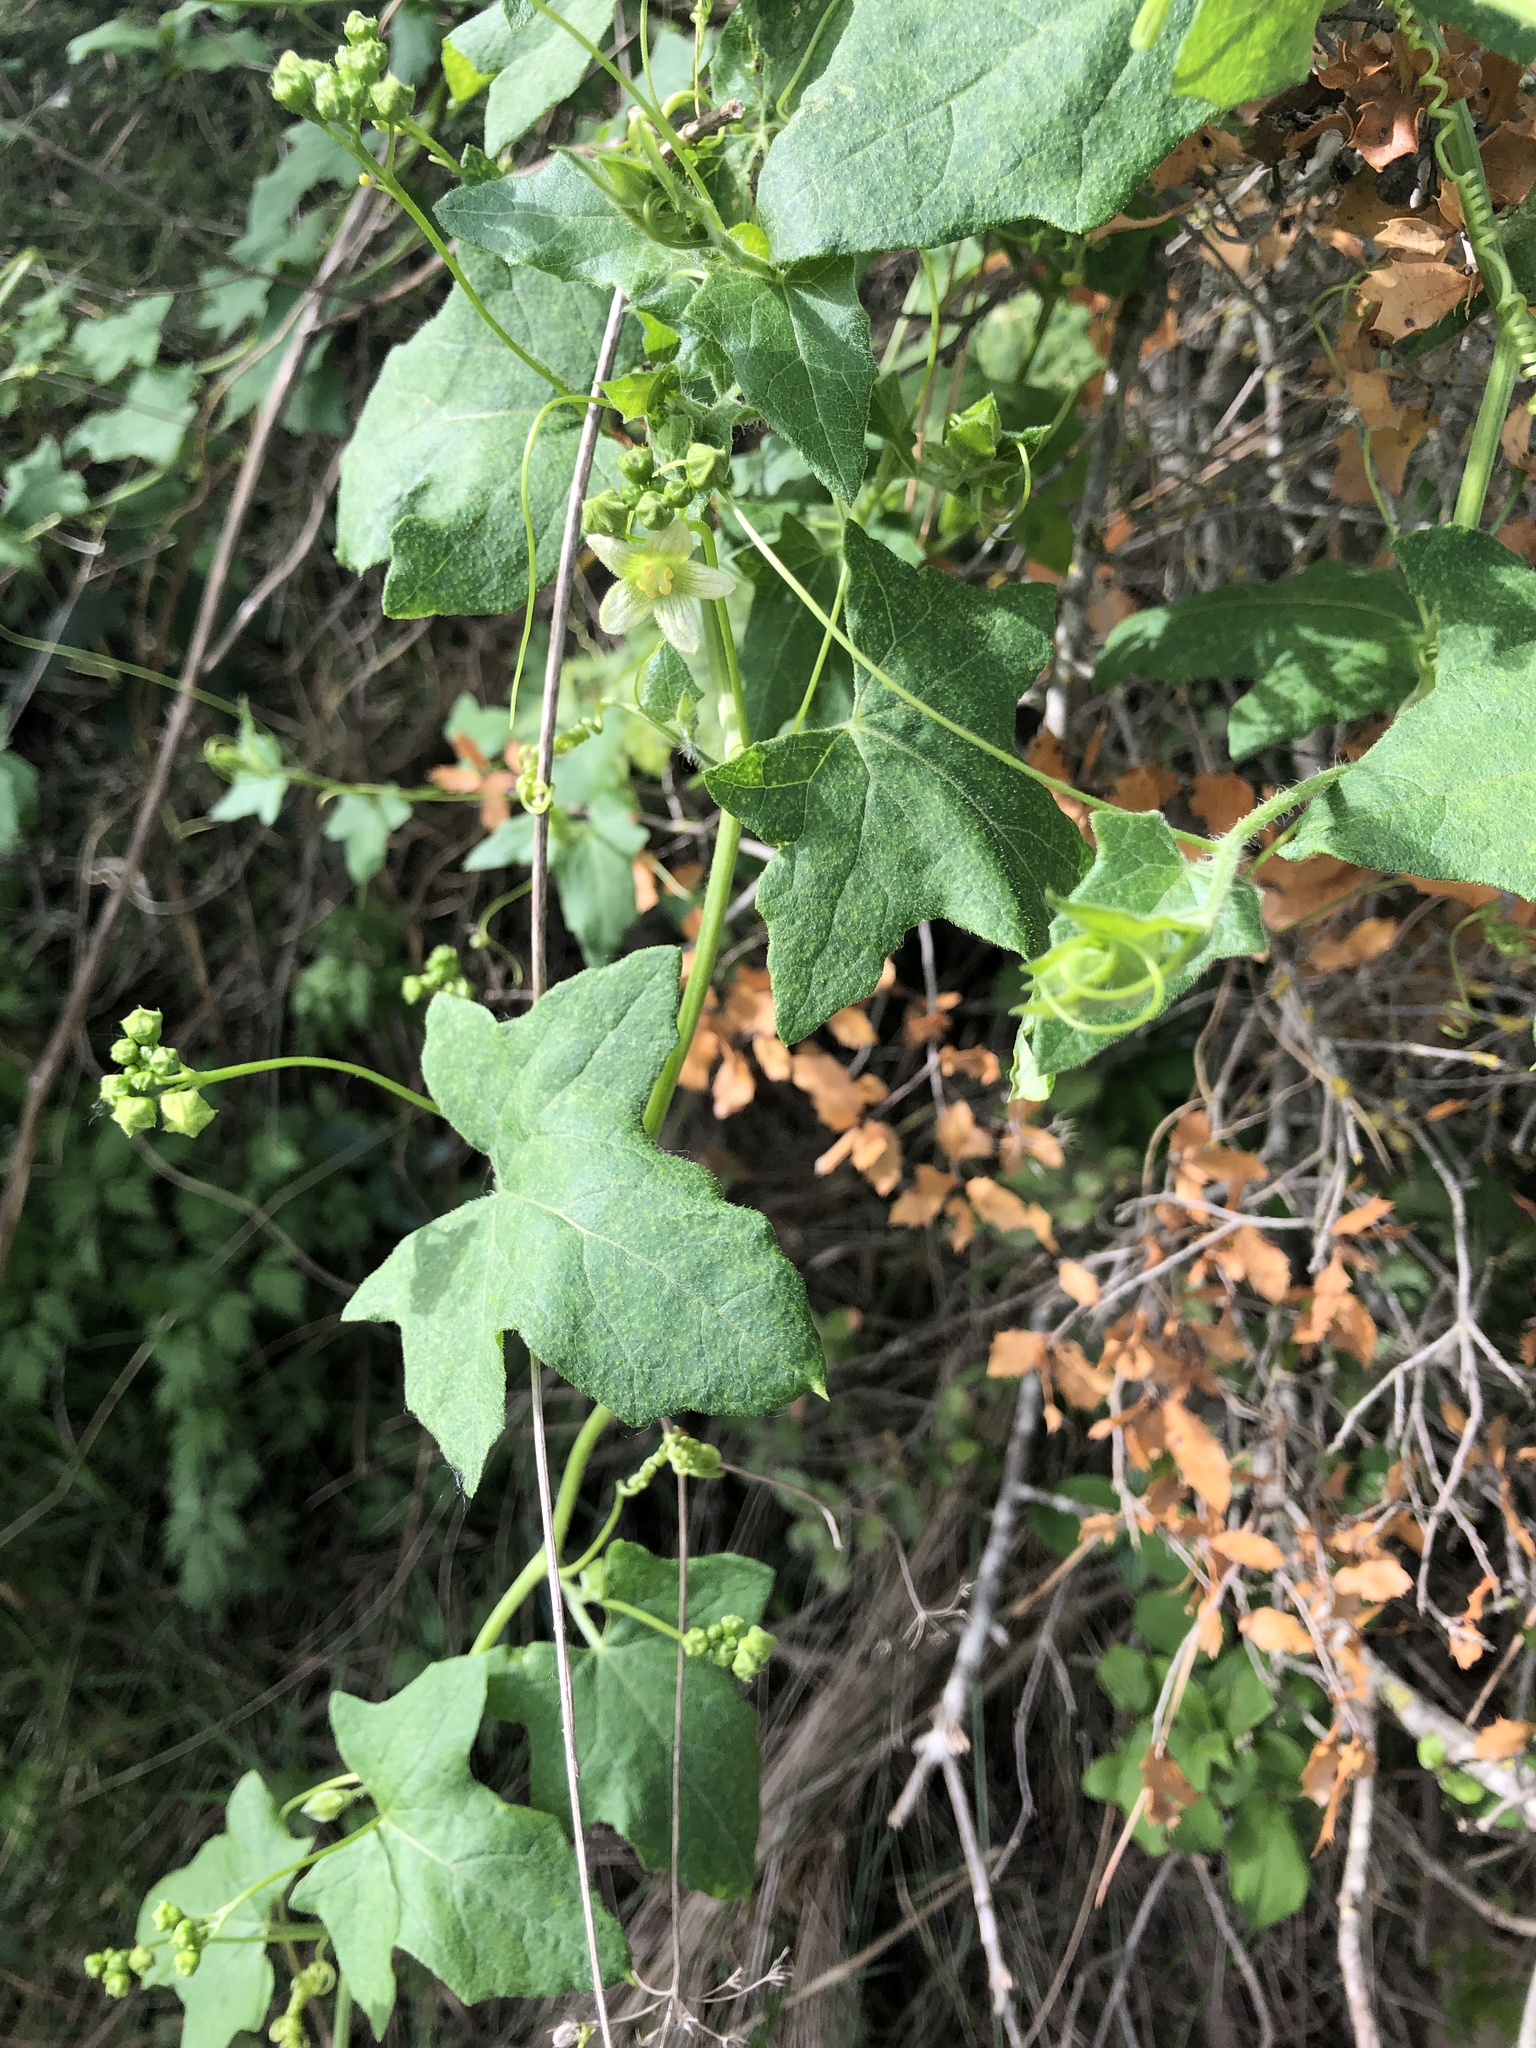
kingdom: Plantae
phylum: Tracheophyta
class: Magnoliopsida
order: Cucurbitales
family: Cucurbitaceae
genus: Bryonia
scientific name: Bryonia dioica
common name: White bryony
